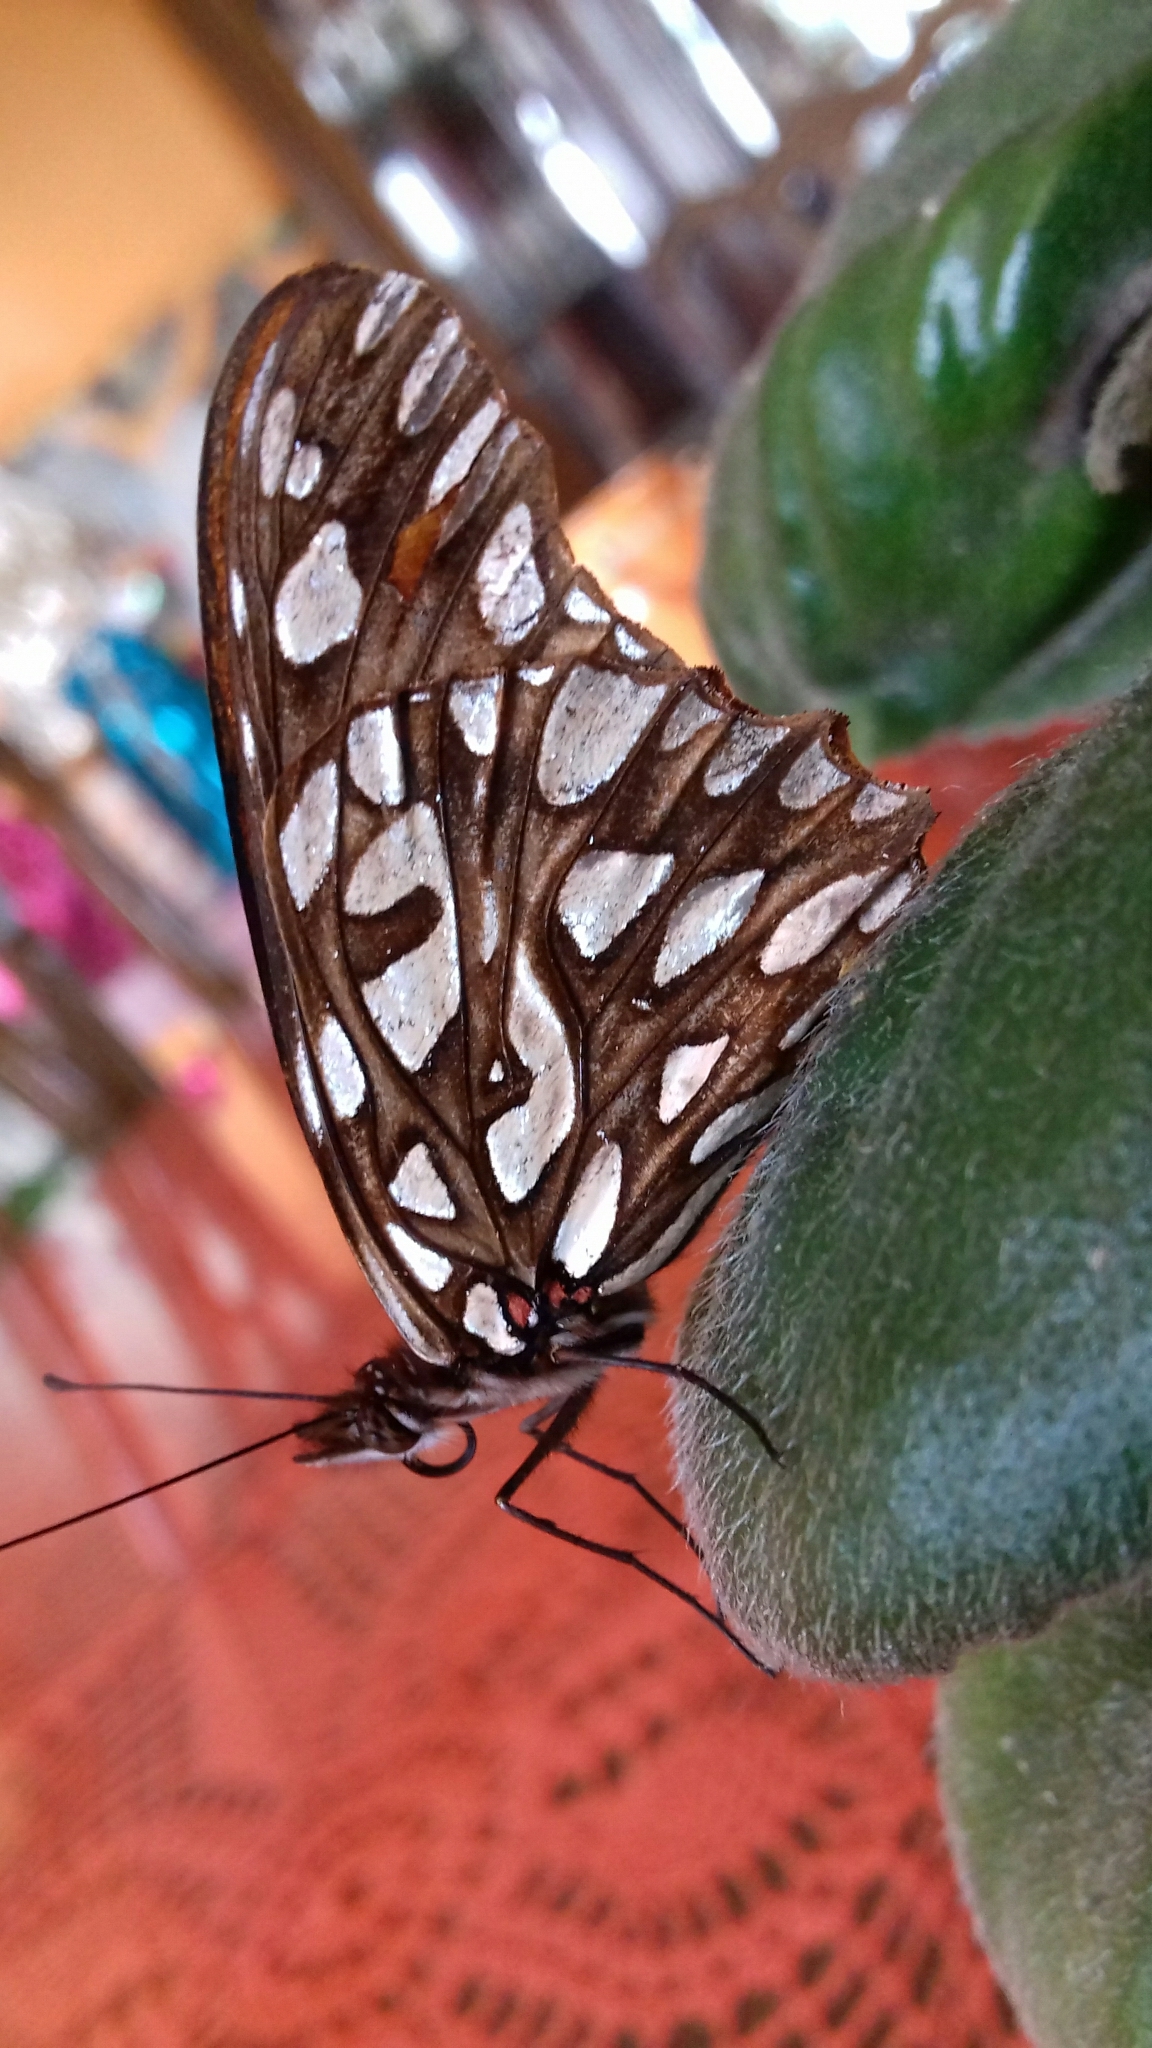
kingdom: Animalia
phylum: Arthropoda
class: Insecta
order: Lepidoptera
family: Nymphalidae
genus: Dione
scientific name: Dione moneta
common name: Mexican silverspot
